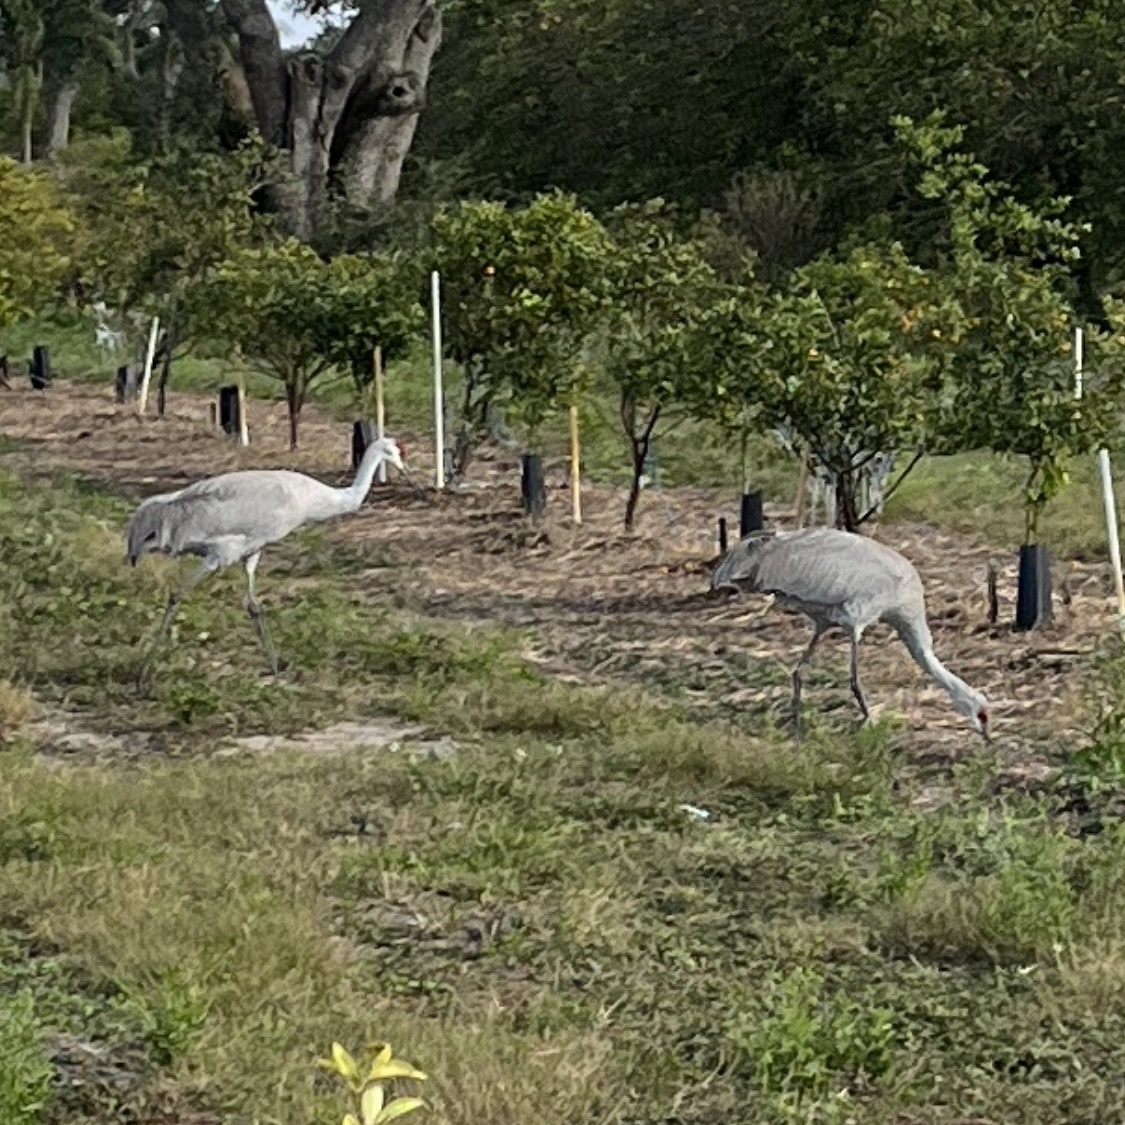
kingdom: Animalia
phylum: Chordata
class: Aves
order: Gruiformes
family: Gruidae
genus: Grus
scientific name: Grus canadensis
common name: Sandhill crane
